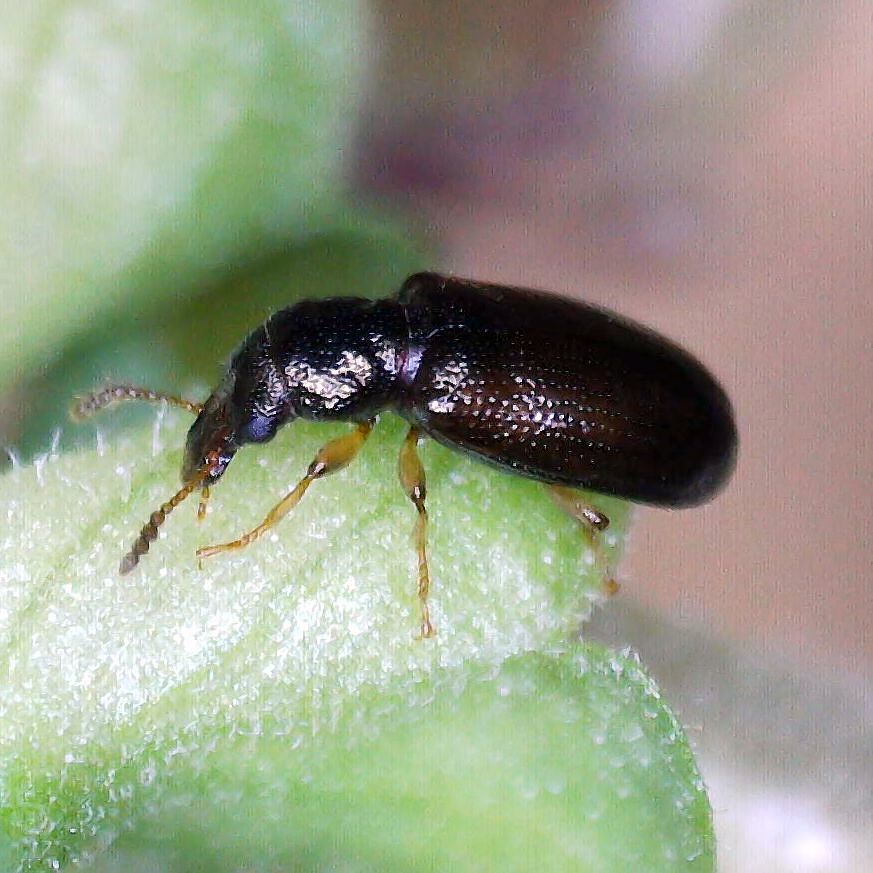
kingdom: Animalia
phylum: Arthropoda
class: Insecta
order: Coleoptera
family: Salpingidae
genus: Salpingus
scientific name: Salpingus planirostris
